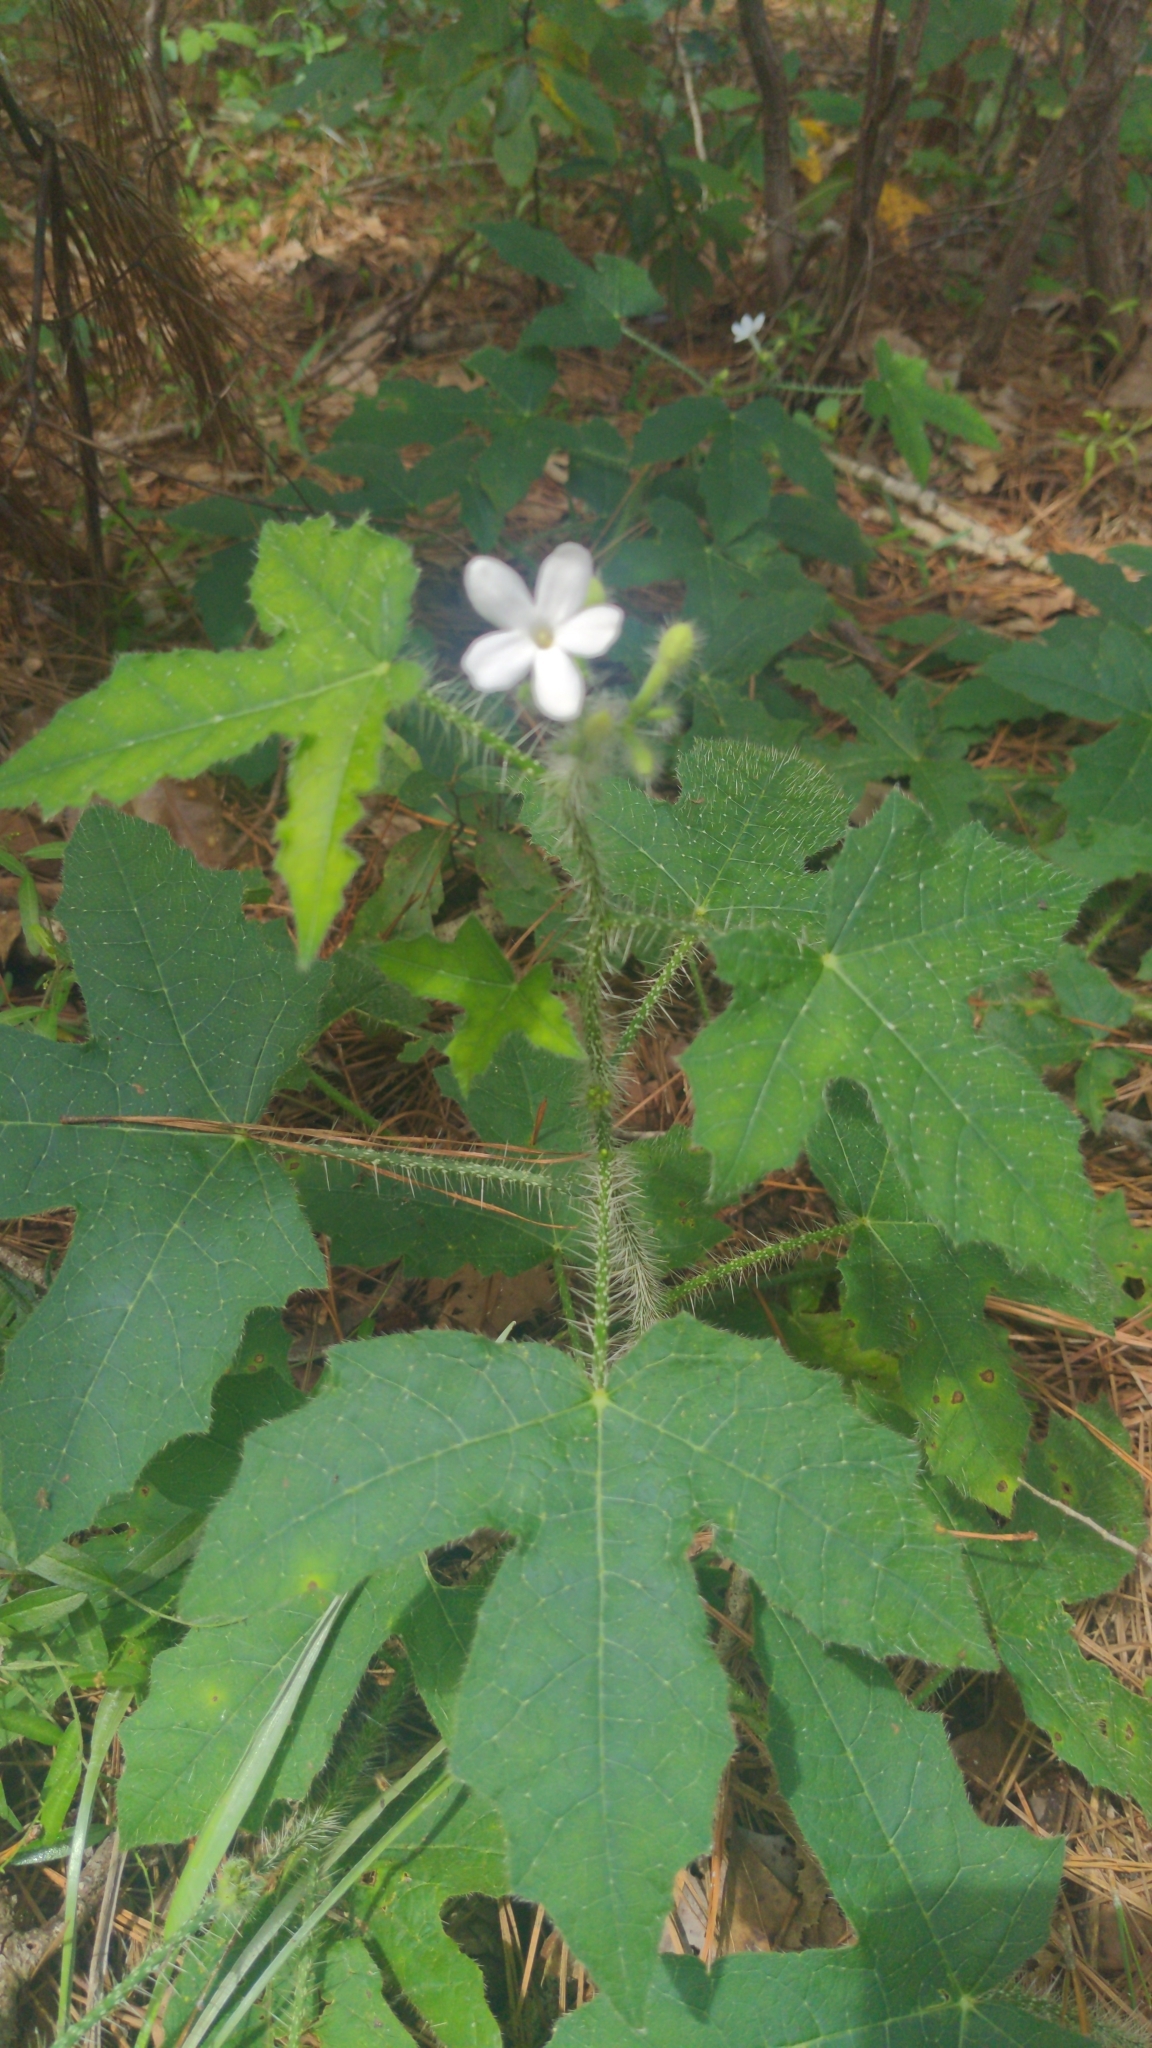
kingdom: Plantae
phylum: Tracheophyta
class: Magnoliopsida
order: Malpighiales
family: Euphorbiaceae
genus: Cnidoscolus
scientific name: Cnidoscolus texanus
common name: Texas bull-nettle
